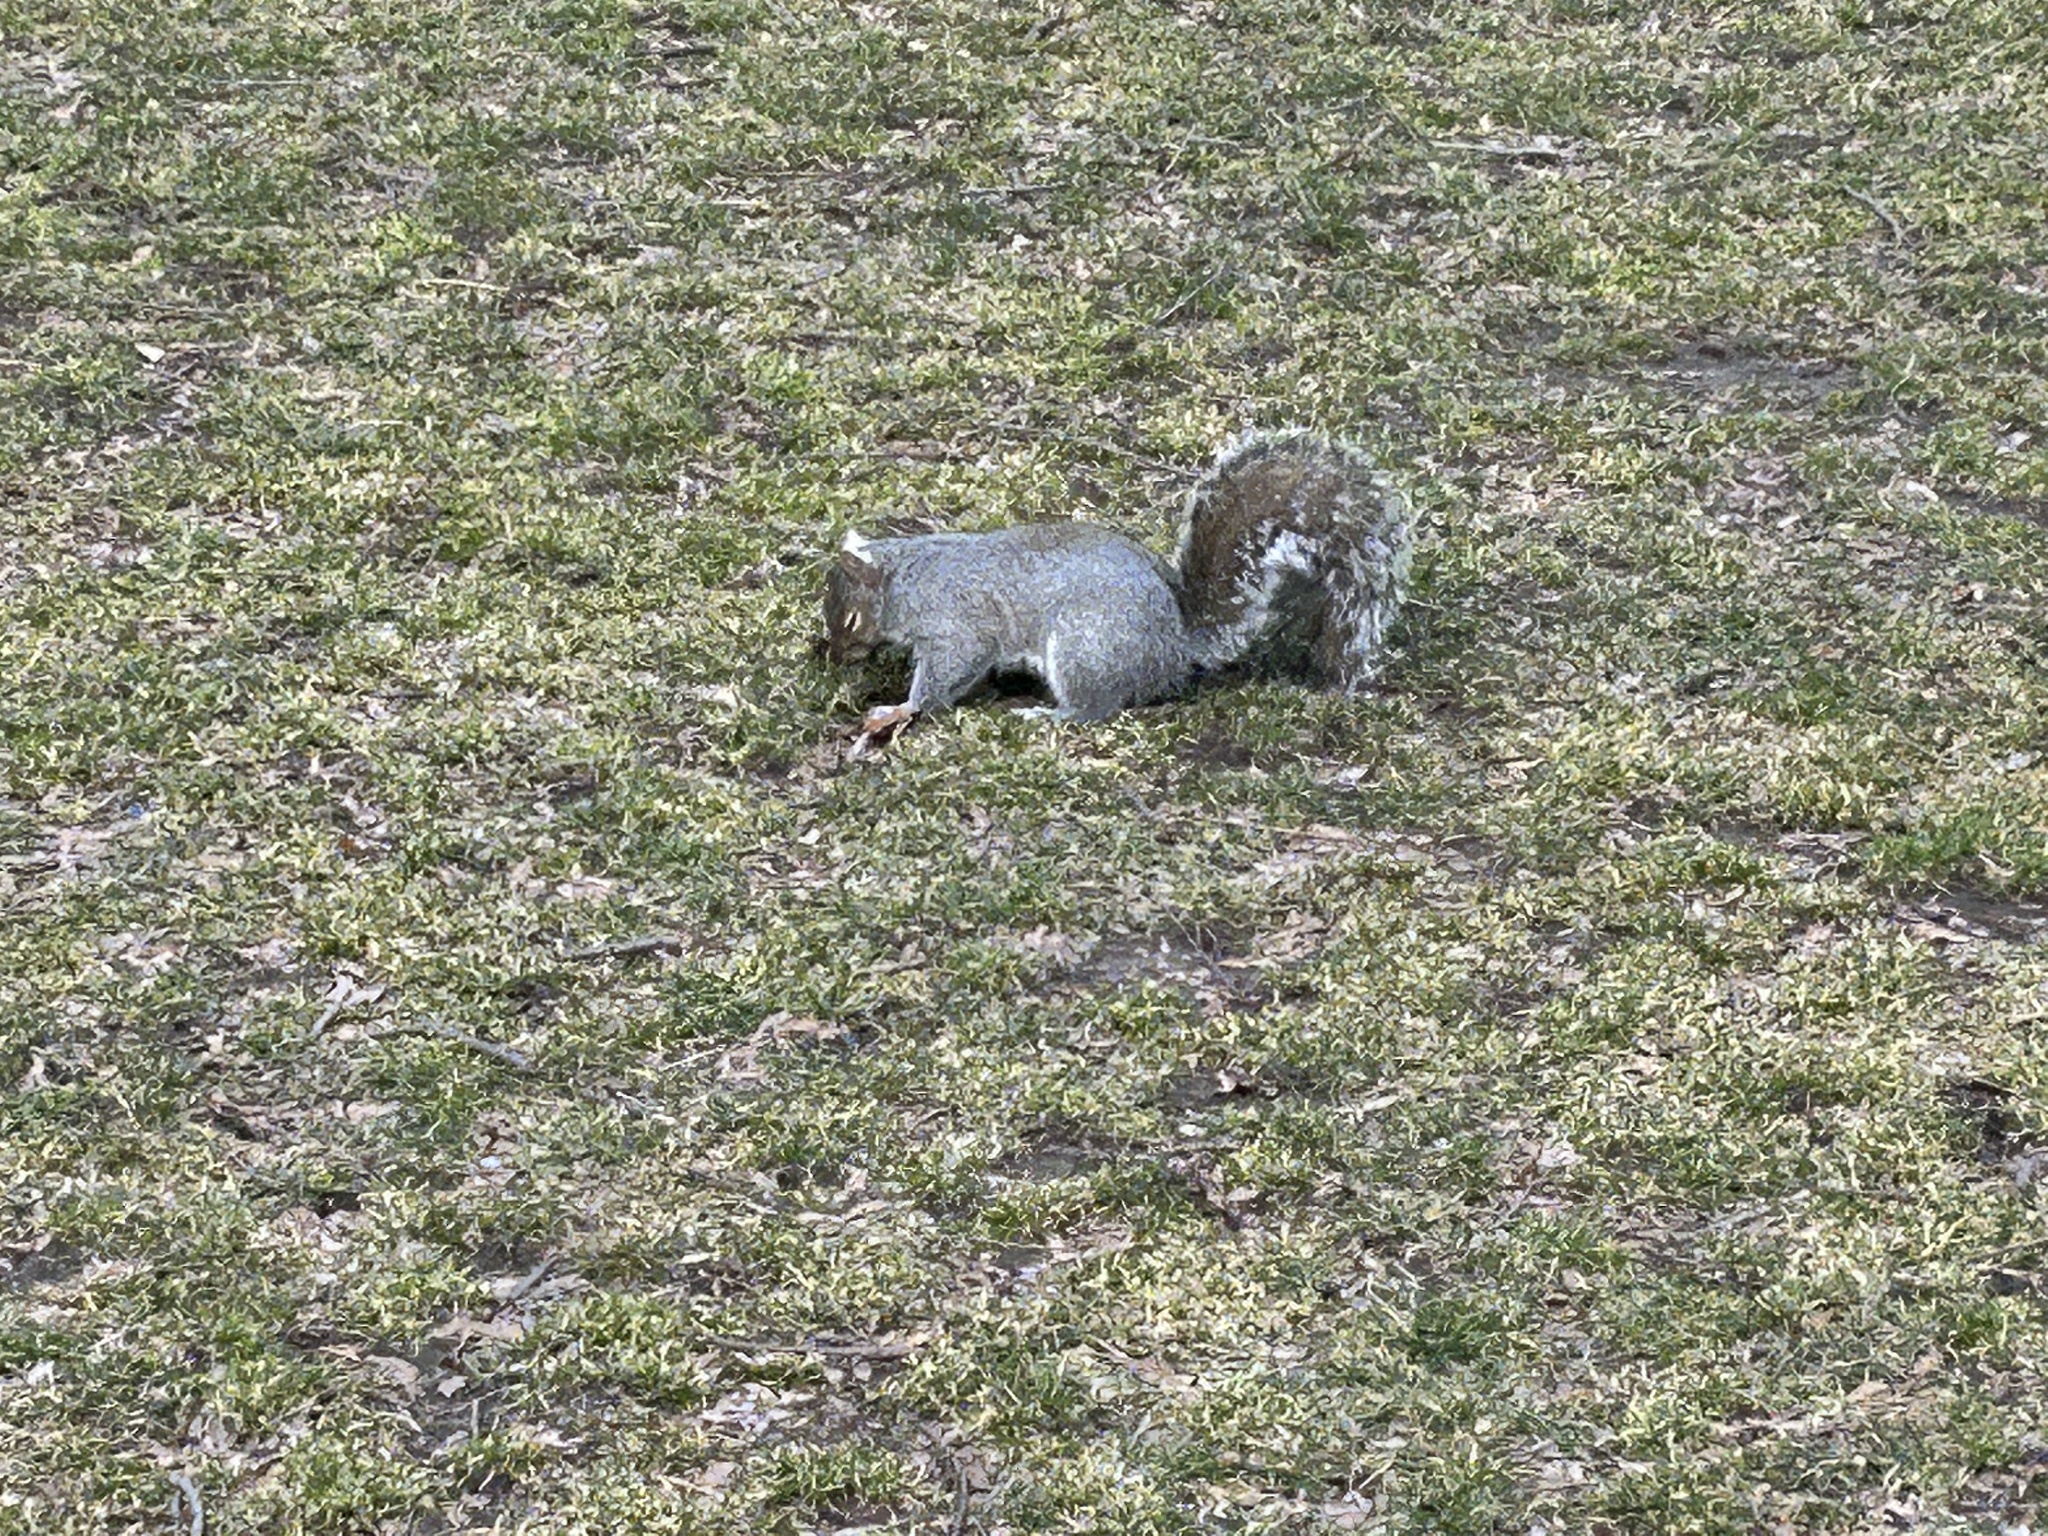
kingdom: Animalia
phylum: Chordata
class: Mammalia
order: Rodentia
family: Sciuridae
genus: Sciurus
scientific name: Sciurus carolinensis
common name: Eastern gray squirrel
